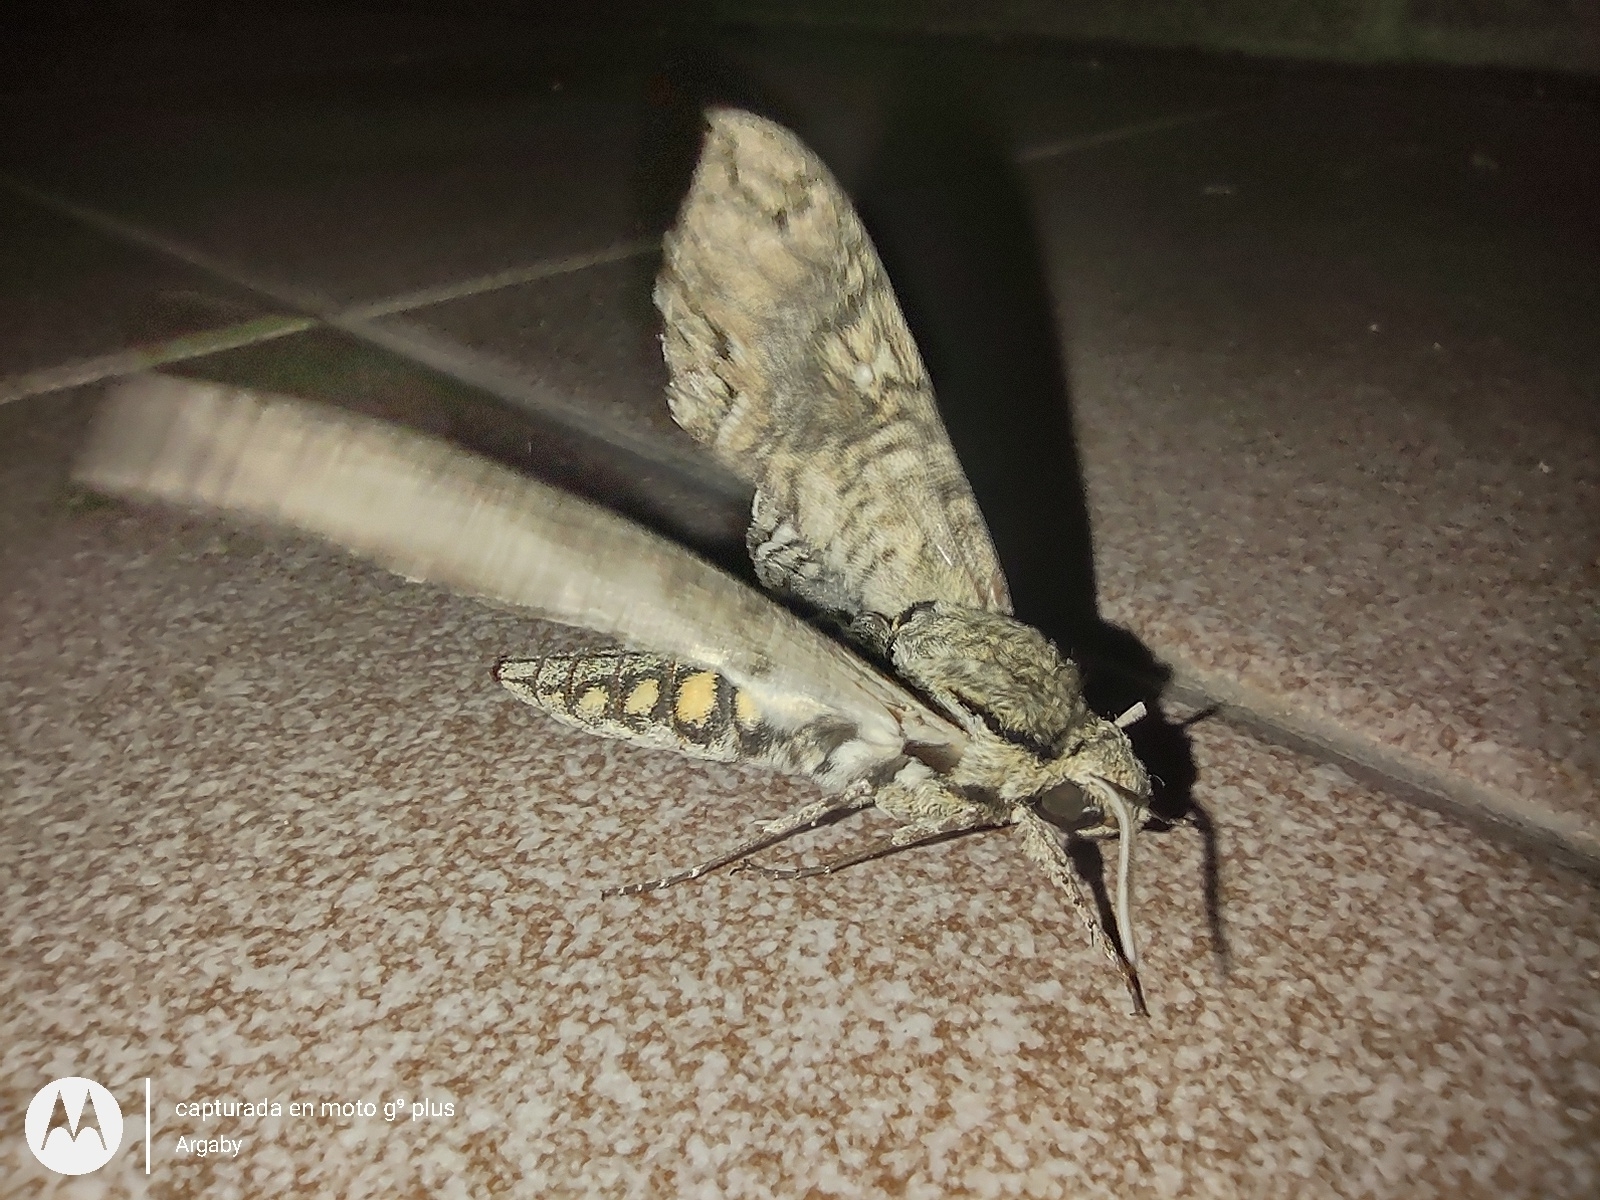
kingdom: Animalia
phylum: Arthropoda
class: Insecta
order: Lepidoptera
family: Sphingidae
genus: Manduca
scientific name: Manduca afflicta
